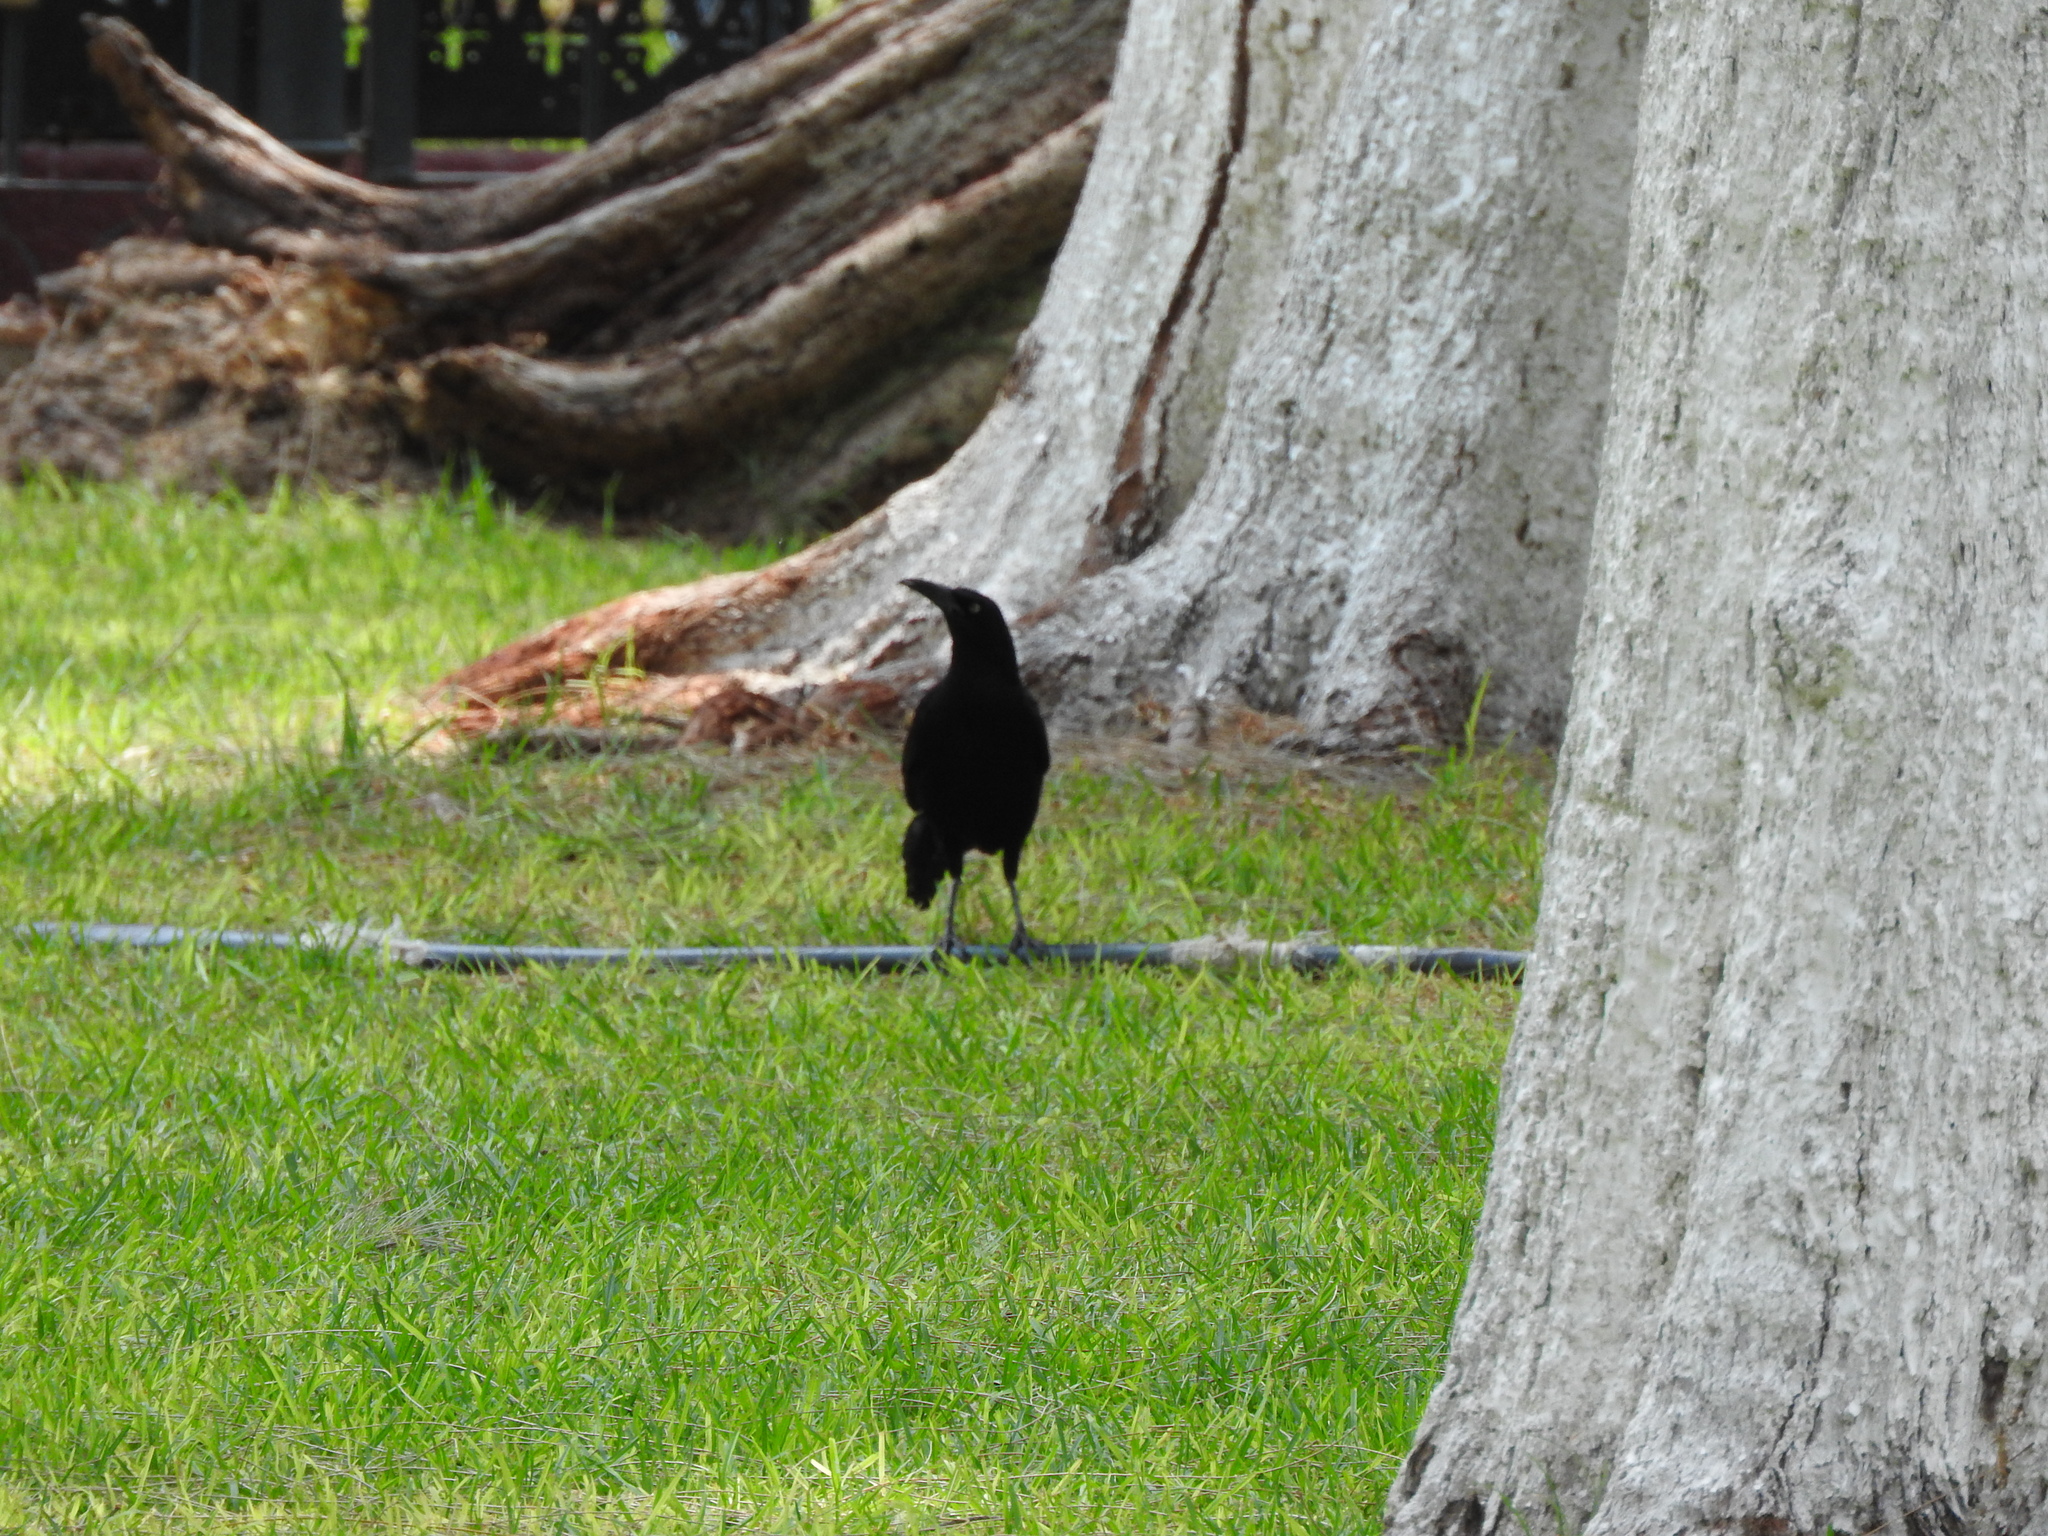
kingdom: Animalia
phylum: Chordata
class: Aves
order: Passeriformes
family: Icteridae
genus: Quiscalus
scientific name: Quiscalus mexicanus
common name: Great-tailed grackle
